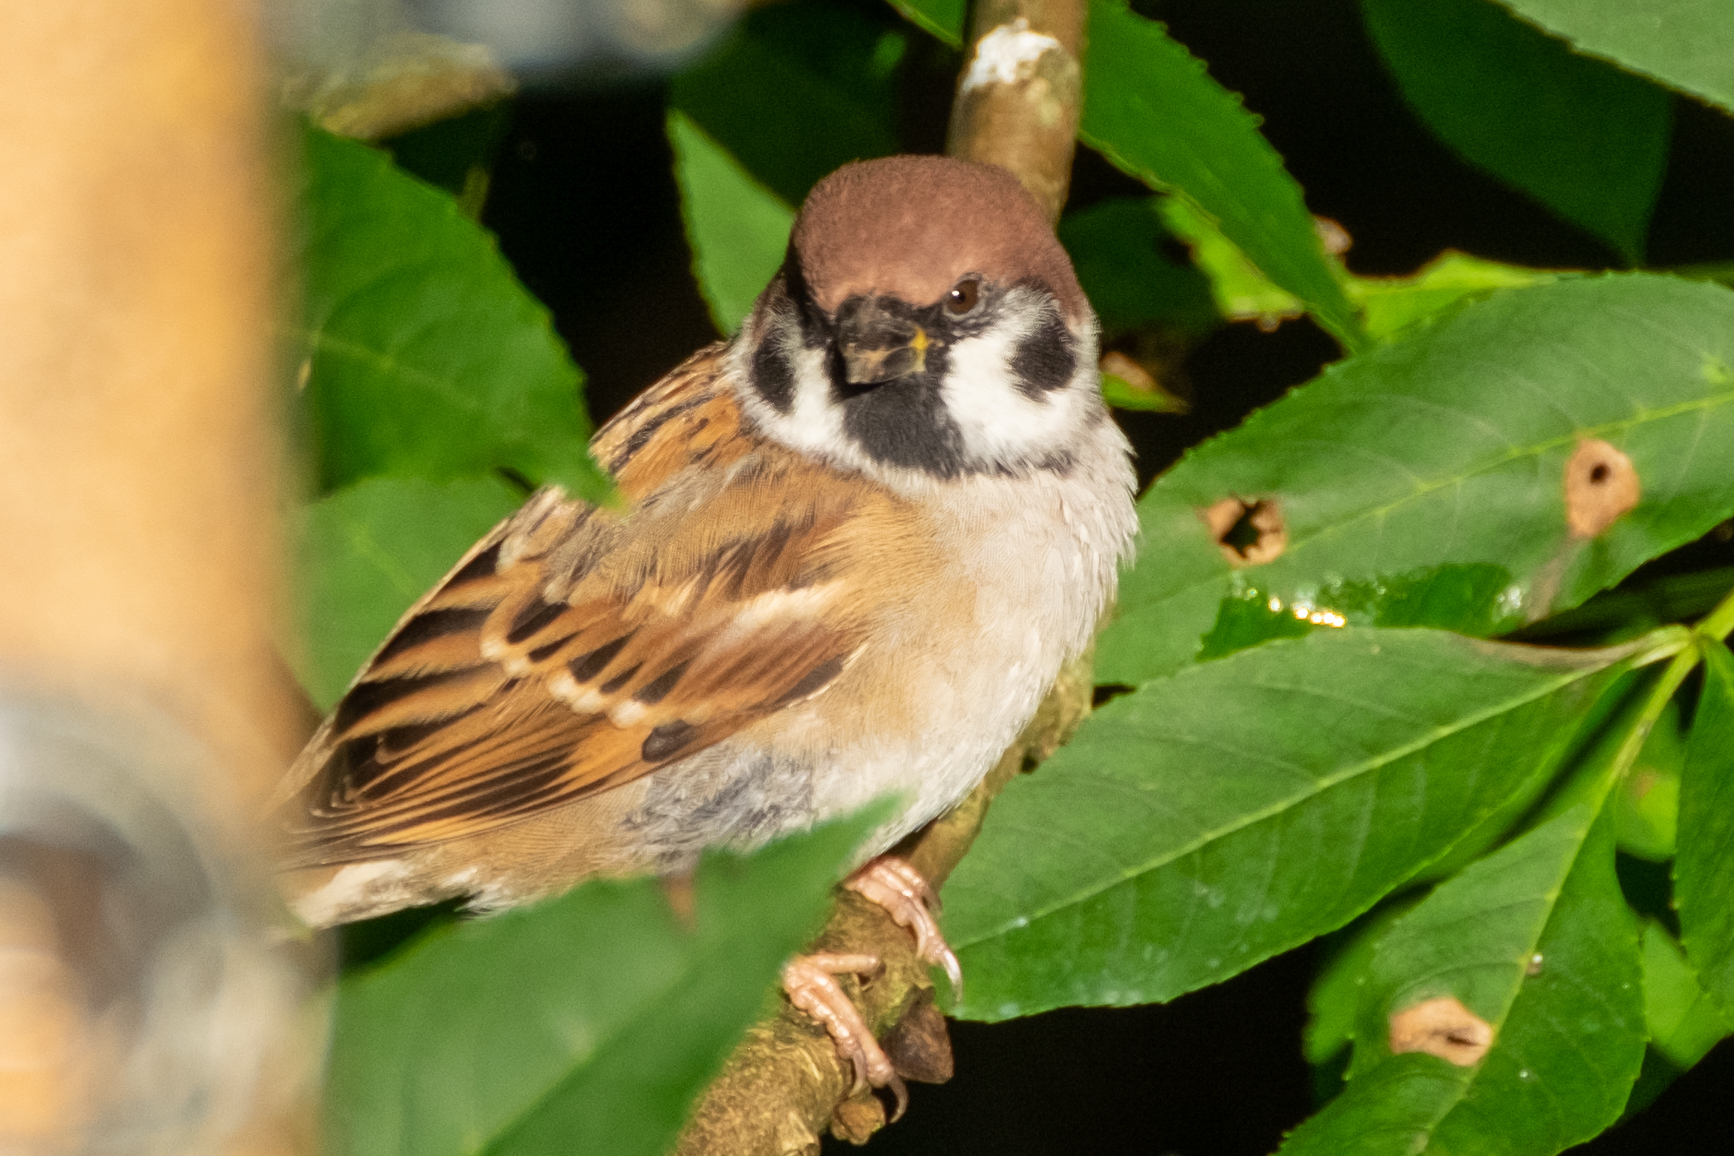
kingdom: Animalia
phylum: Chordata
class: Aves
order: Passeriformes
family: Passeridae
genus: Passer
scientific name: Passer montanus
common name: Eurasian tree sparrow
